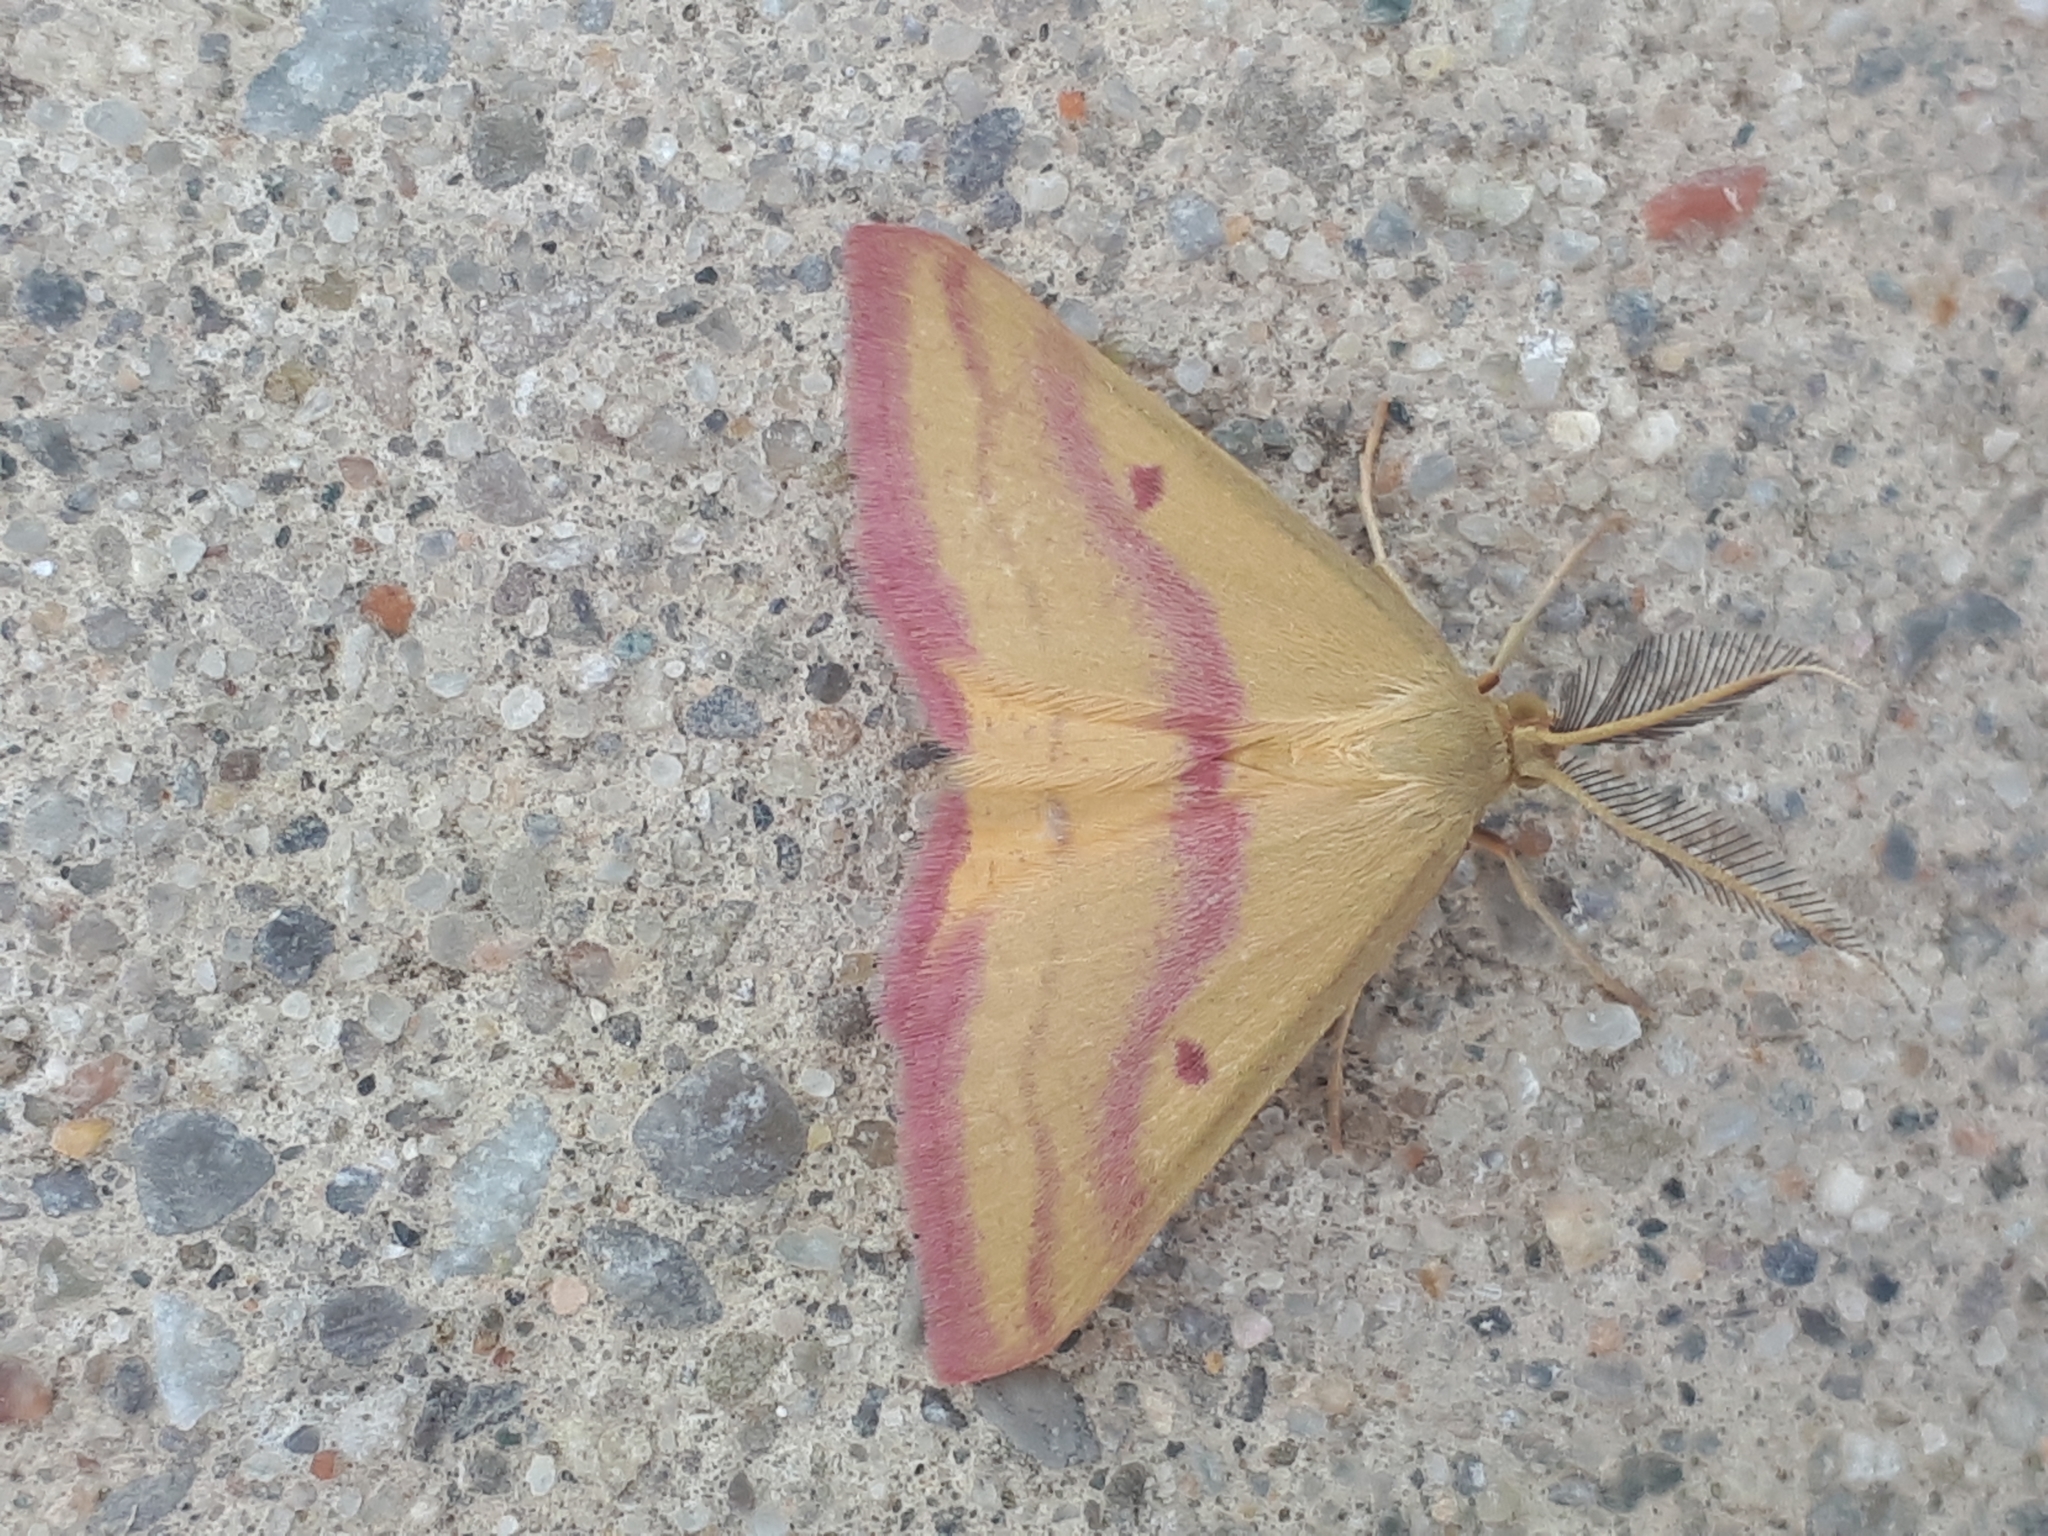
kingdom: Animalia
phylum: Arthropoda
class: Insecta
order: Lepidoptera
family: Geometridae
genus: Haematopis
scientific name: Haematopis grataria
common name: Chickweed geometer
